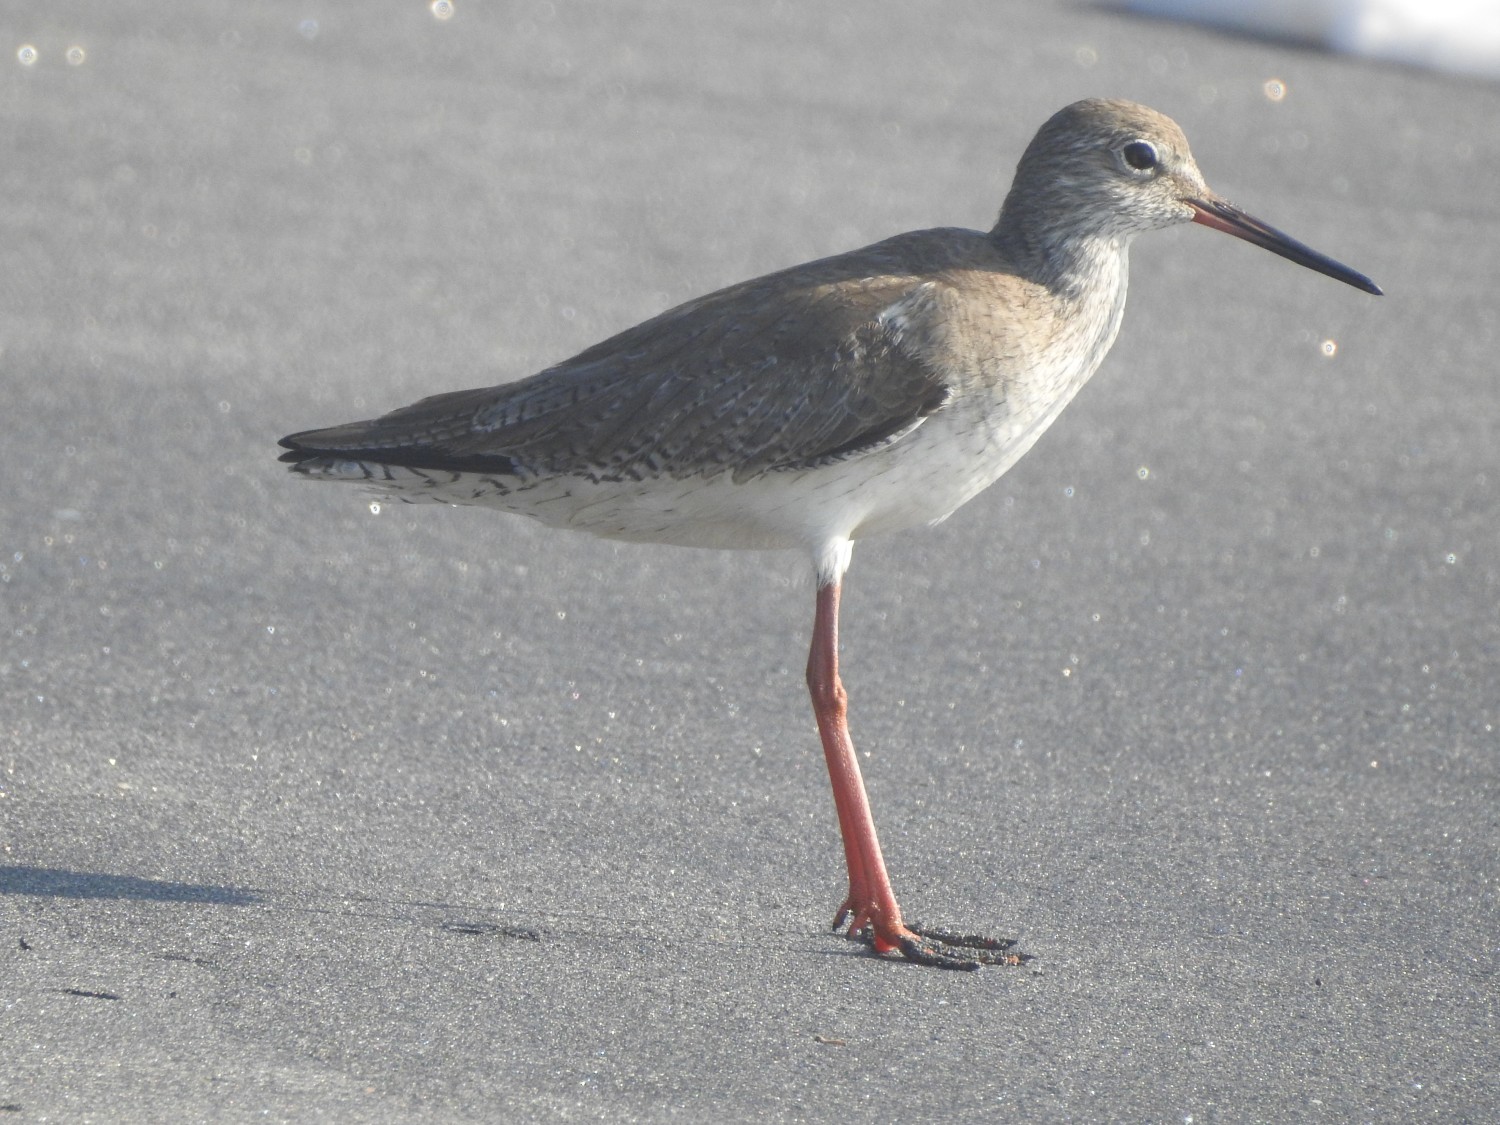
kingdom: Animalia
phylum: Chordata
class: Aves
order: Charadriiformes
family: Scolopacidae
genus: Tringa
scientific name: Tringa totanus
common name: Common redshank
